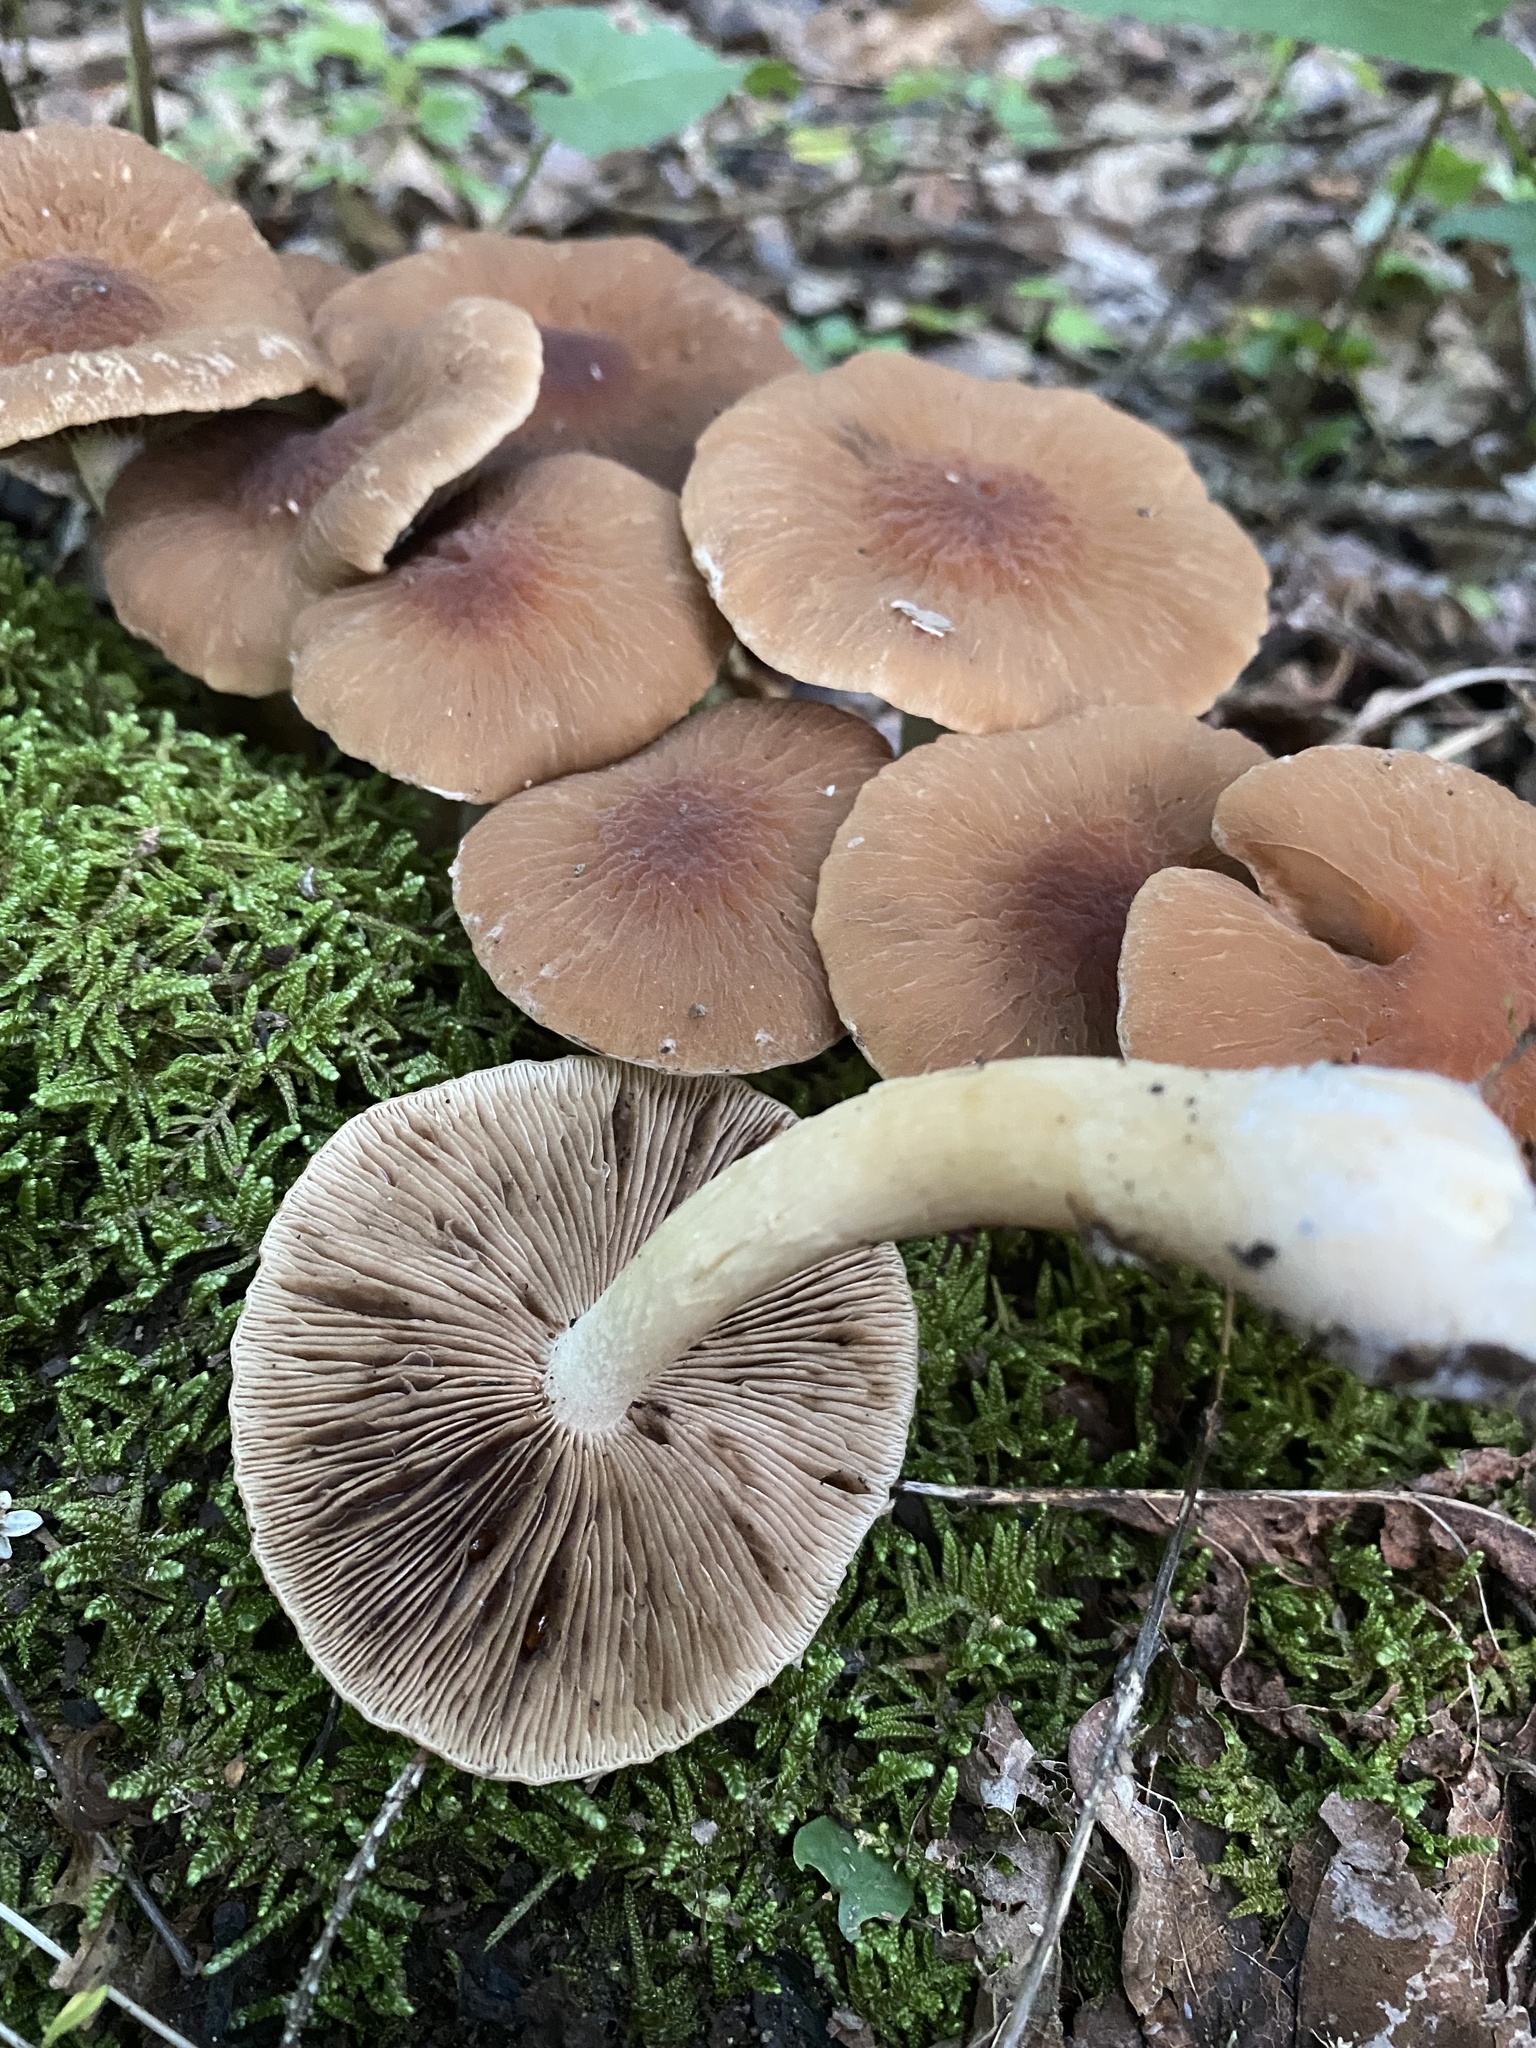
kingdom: Fungi
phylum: Basidiomycota
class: Agaricomycetes
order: Agaricales
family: Psathyrellaceae
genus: Typhrasa
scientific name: Typhrasa gossypina
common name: Wrinkled psathyrella
